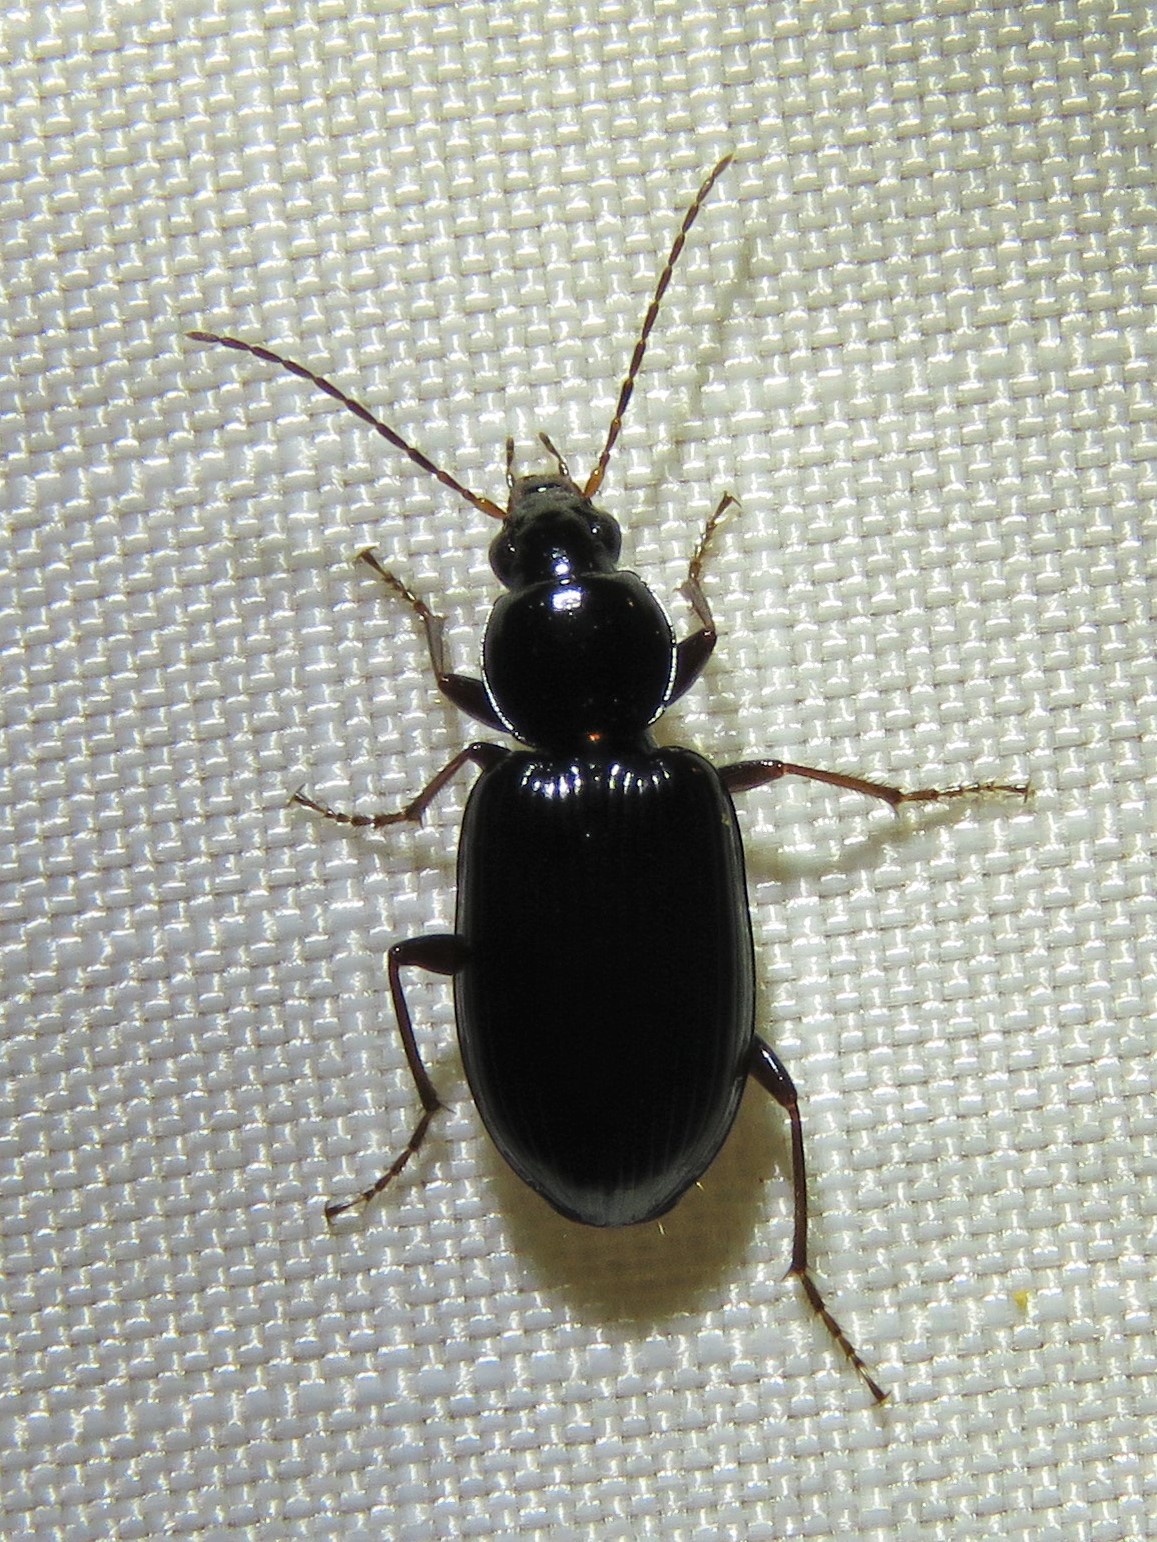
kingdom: Animalia
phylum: Arthropoda
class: Insecta
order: Coleoptera
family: Carabidae
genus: Agonum
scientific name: Agonum punctiforme
